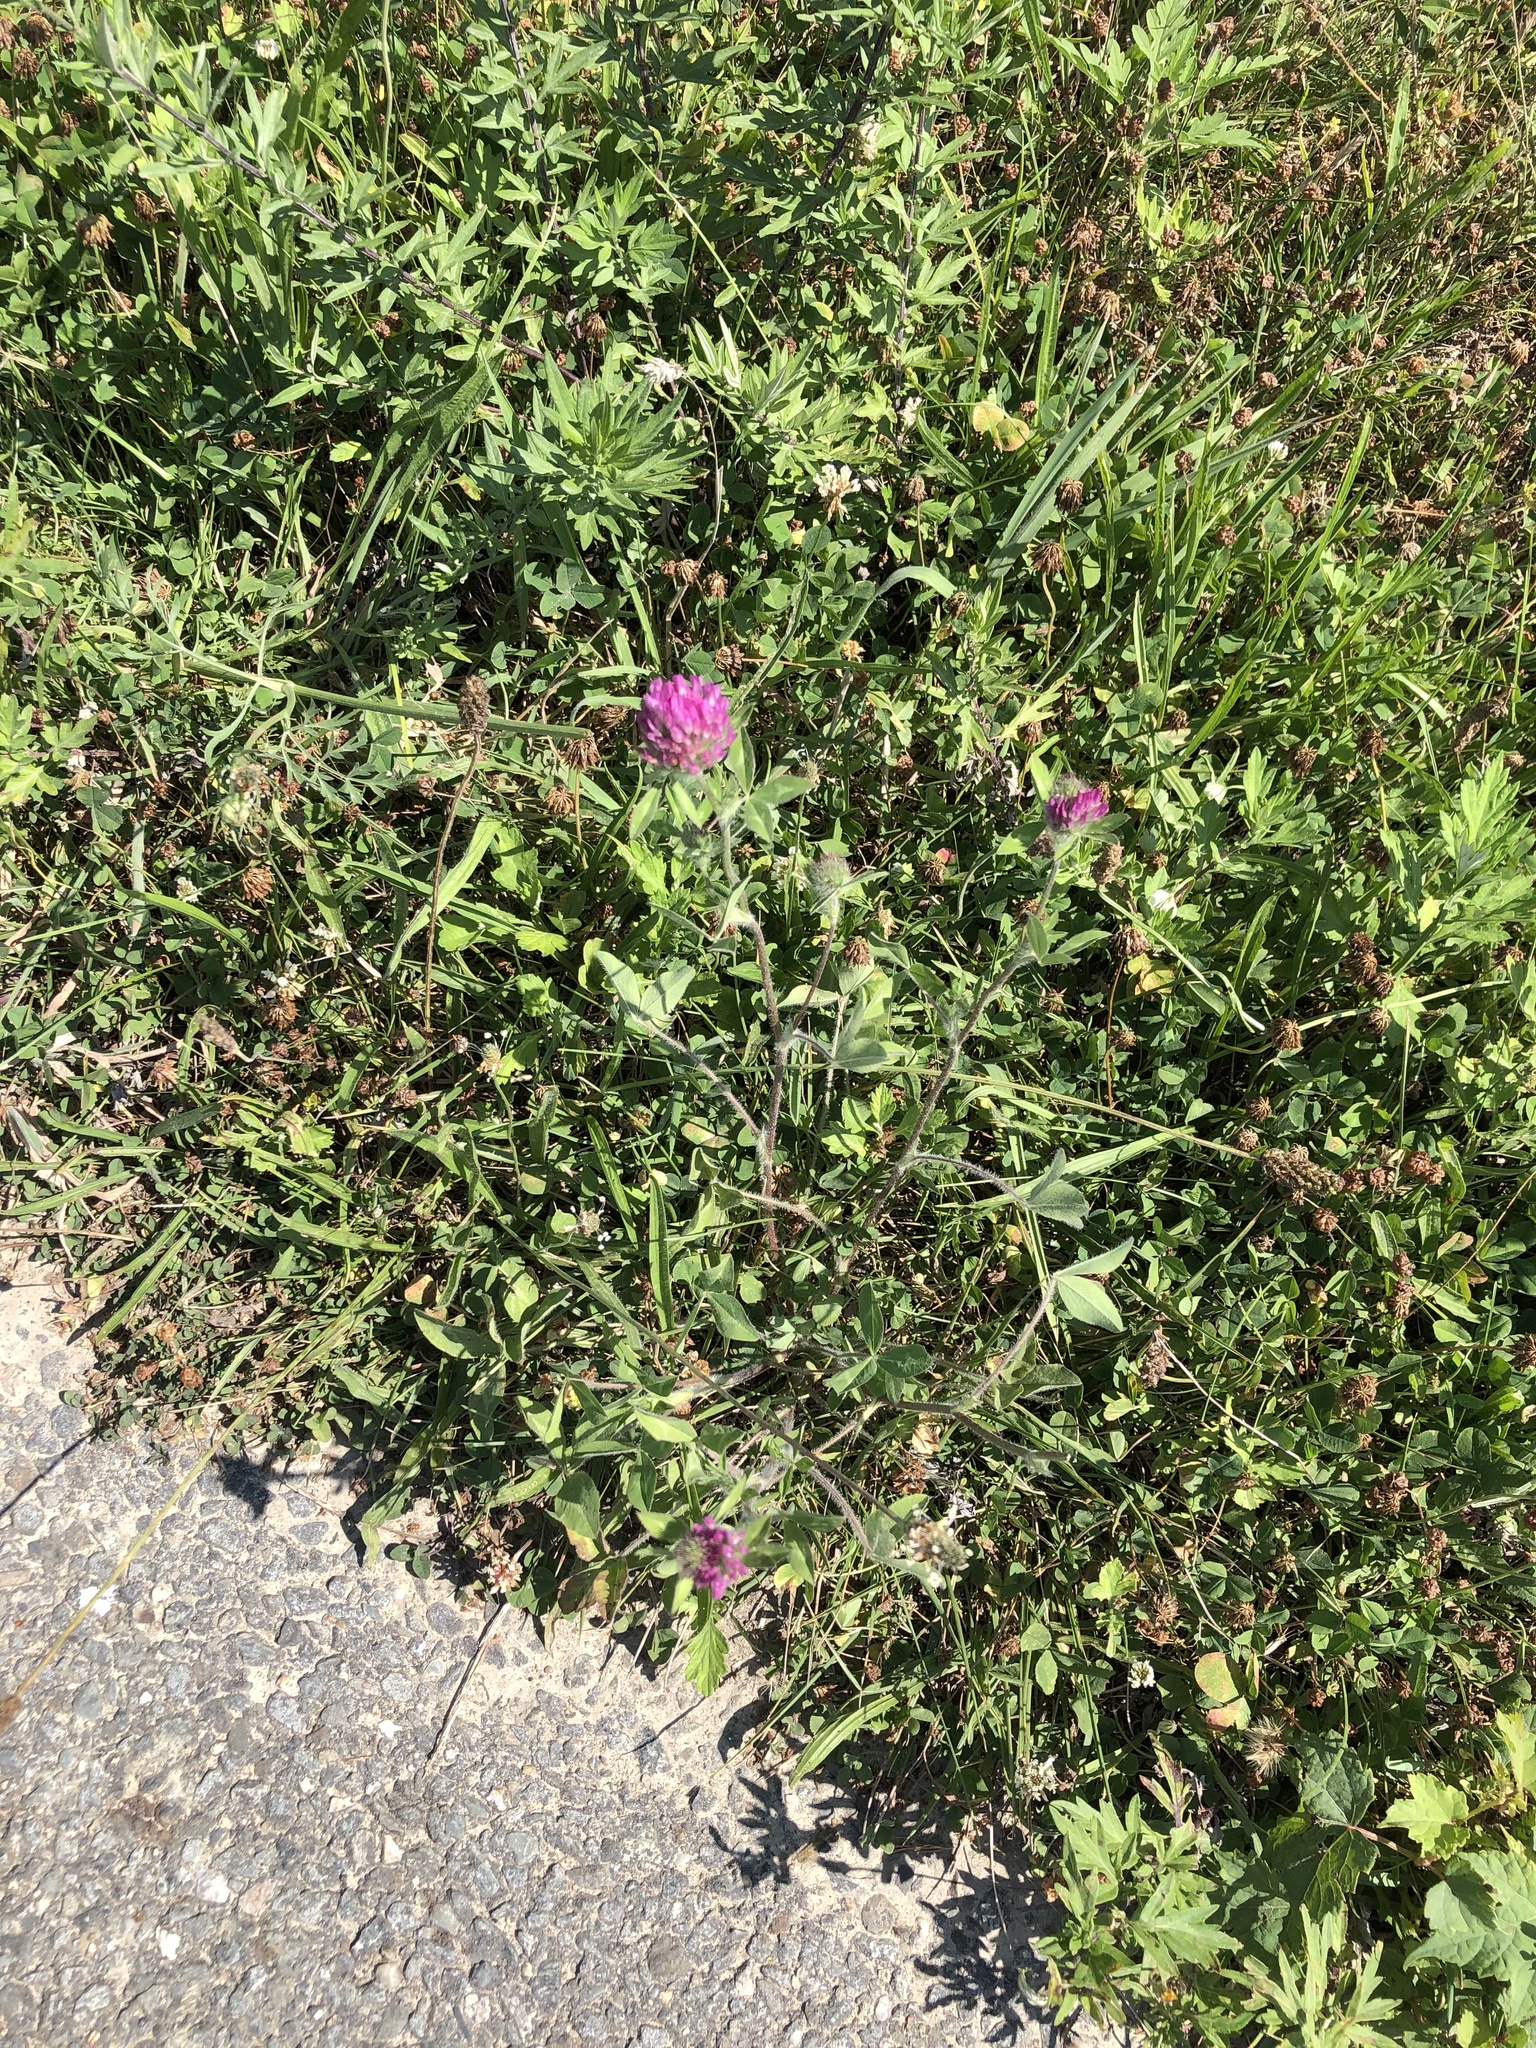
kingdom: Plantae
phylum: Tracheophyta
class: Magnoliopsida
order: Fabales
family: Fabaceae
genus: Trifolium
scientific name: Trifolium pratense
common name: Red clover
